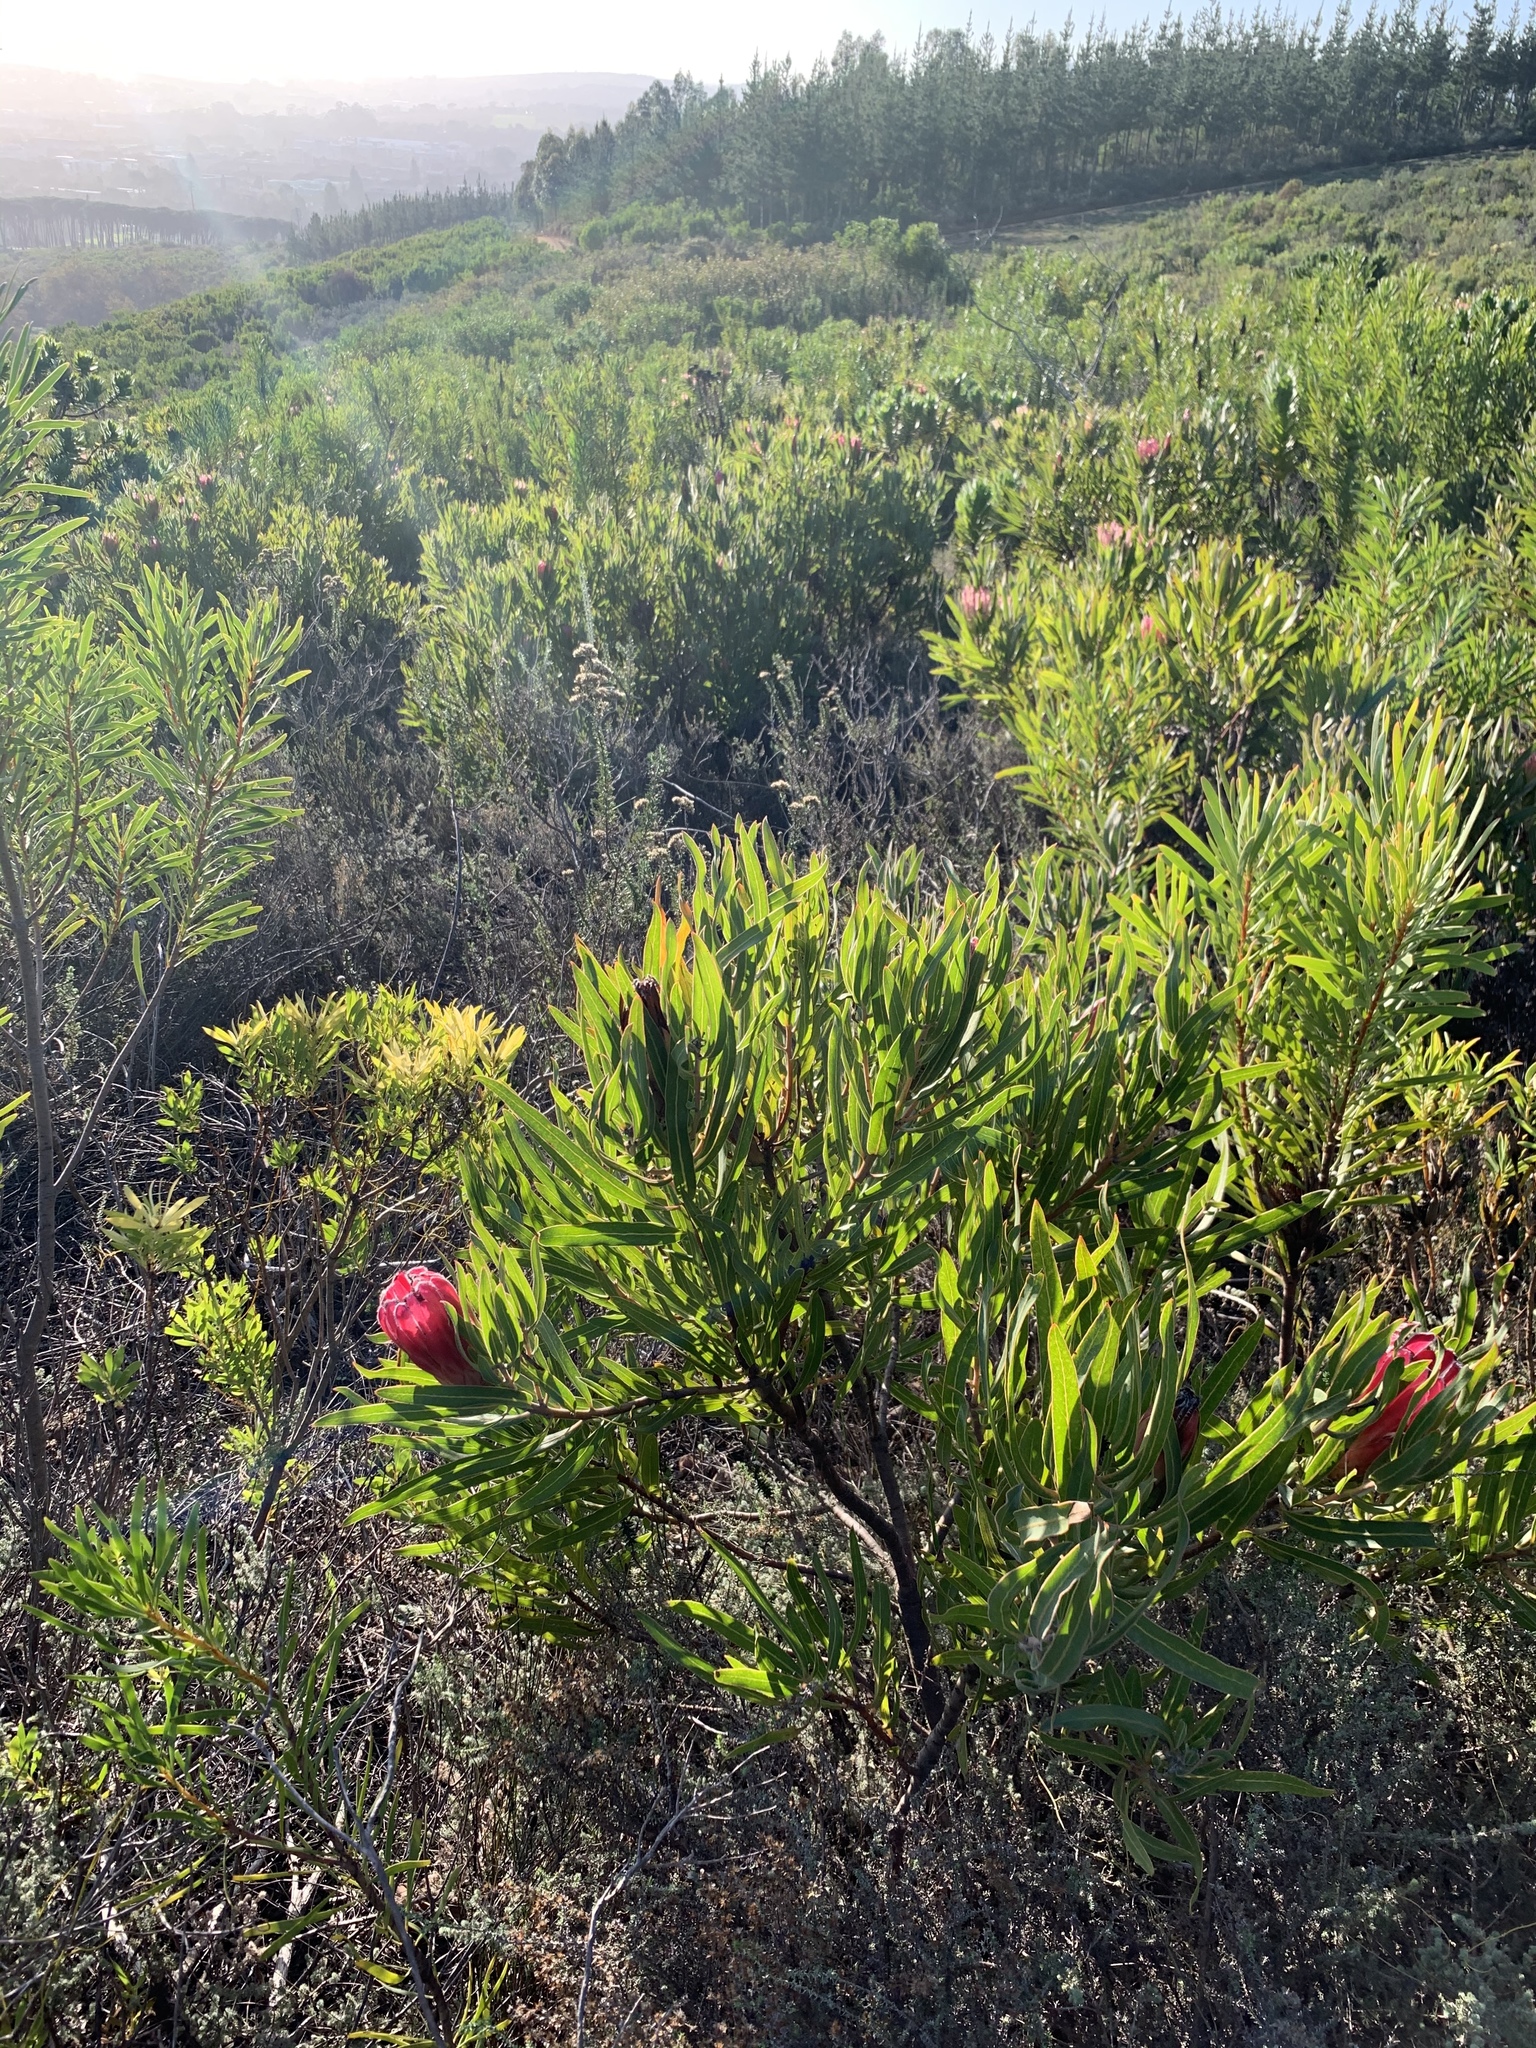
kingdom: Plantae
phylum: Tracheophyta
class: Magnoliopsida
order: Proteales
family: Proteaceae
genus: Protea
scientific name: Protea burchellii
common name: Burchell's sugarbush
